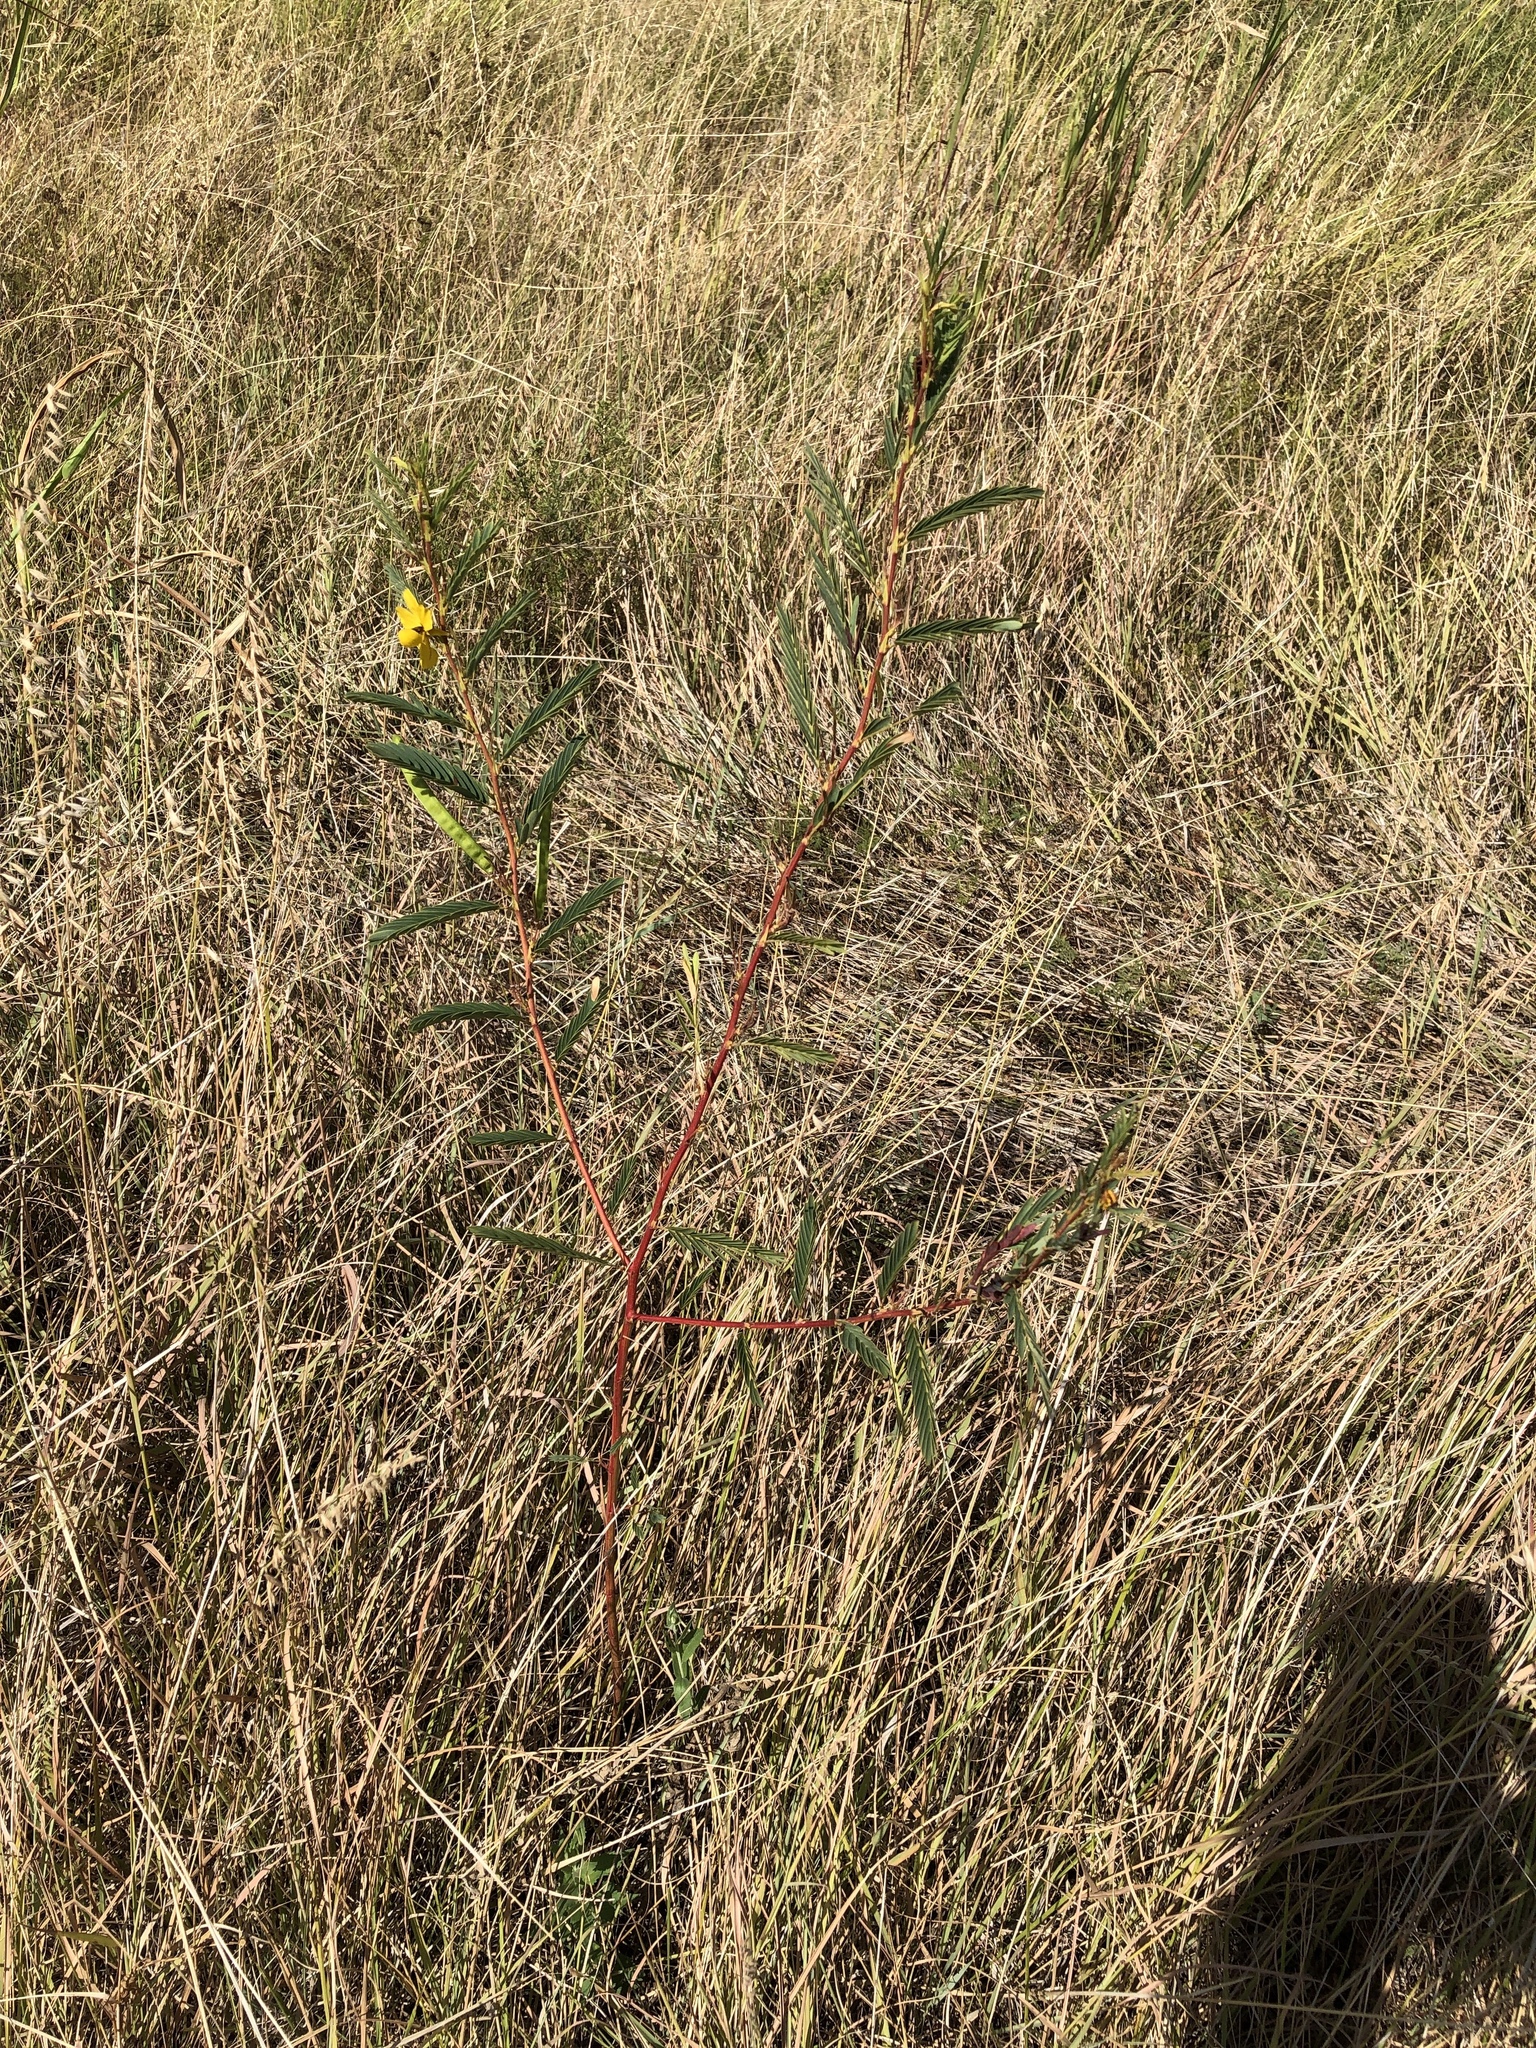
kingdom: Plantae
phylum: Tracheophyta
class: Magnoliopsida
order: Fabales
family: Fabaceae
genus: Chamaecrista
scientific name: Chamaecrista fasciculata
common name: Golden cassia
